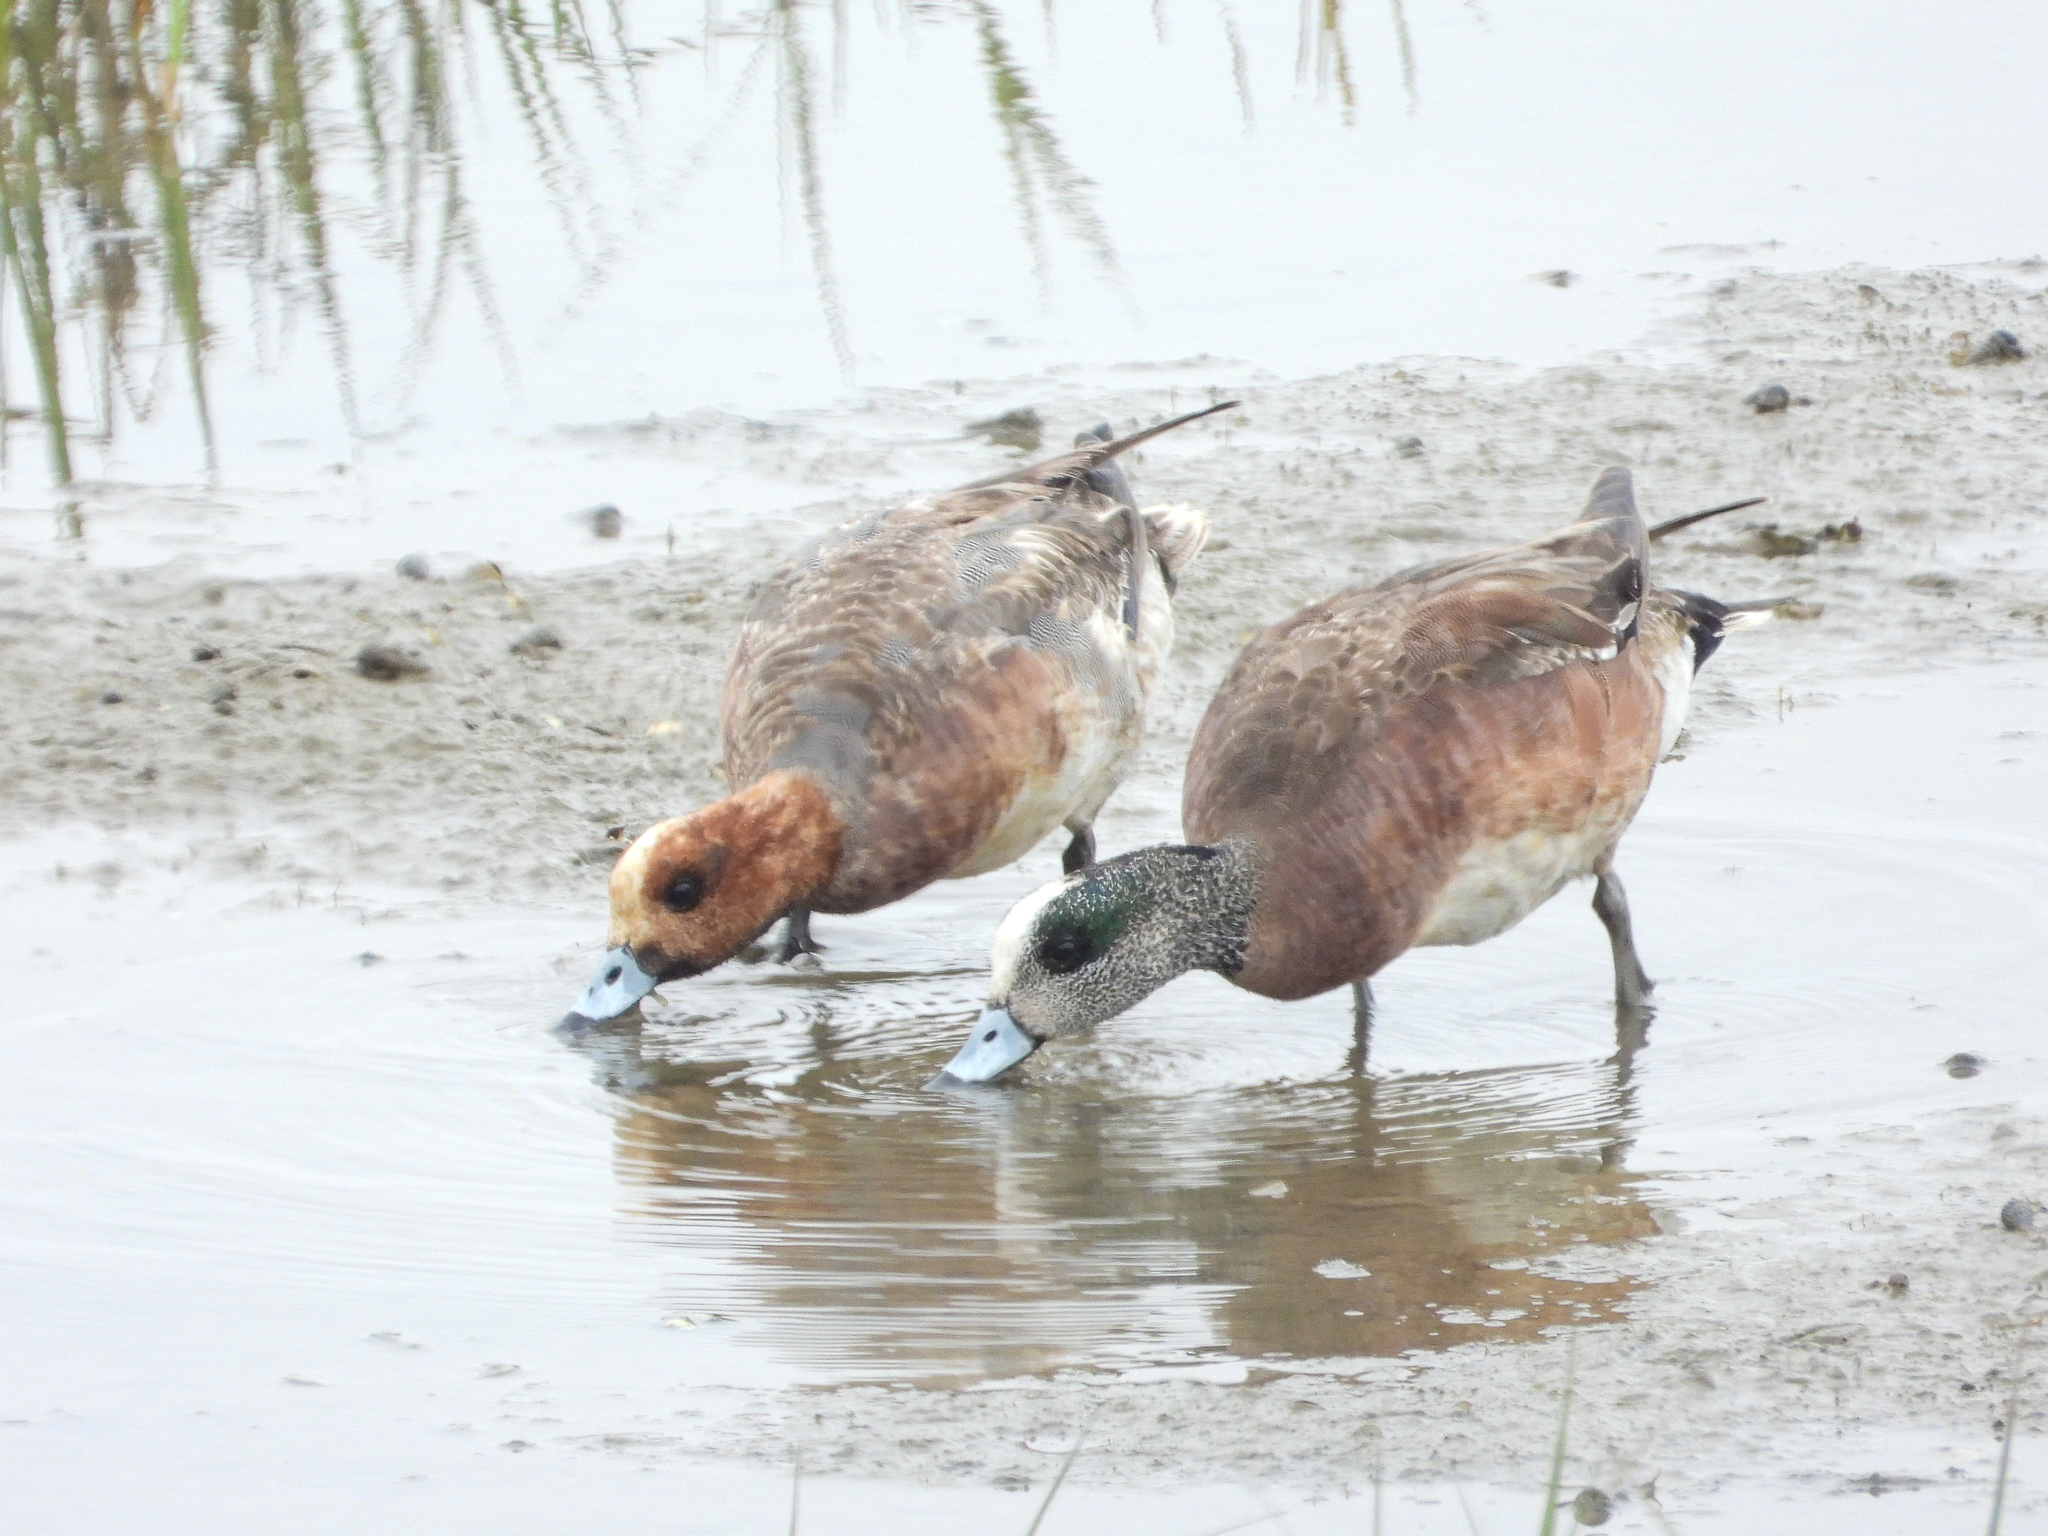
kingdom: Animalia
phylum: Chordata
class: Aves
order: Anseriformes
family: Anatidae
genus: Mareca
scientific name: Mareca penelope
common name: Eurasian wigeon
